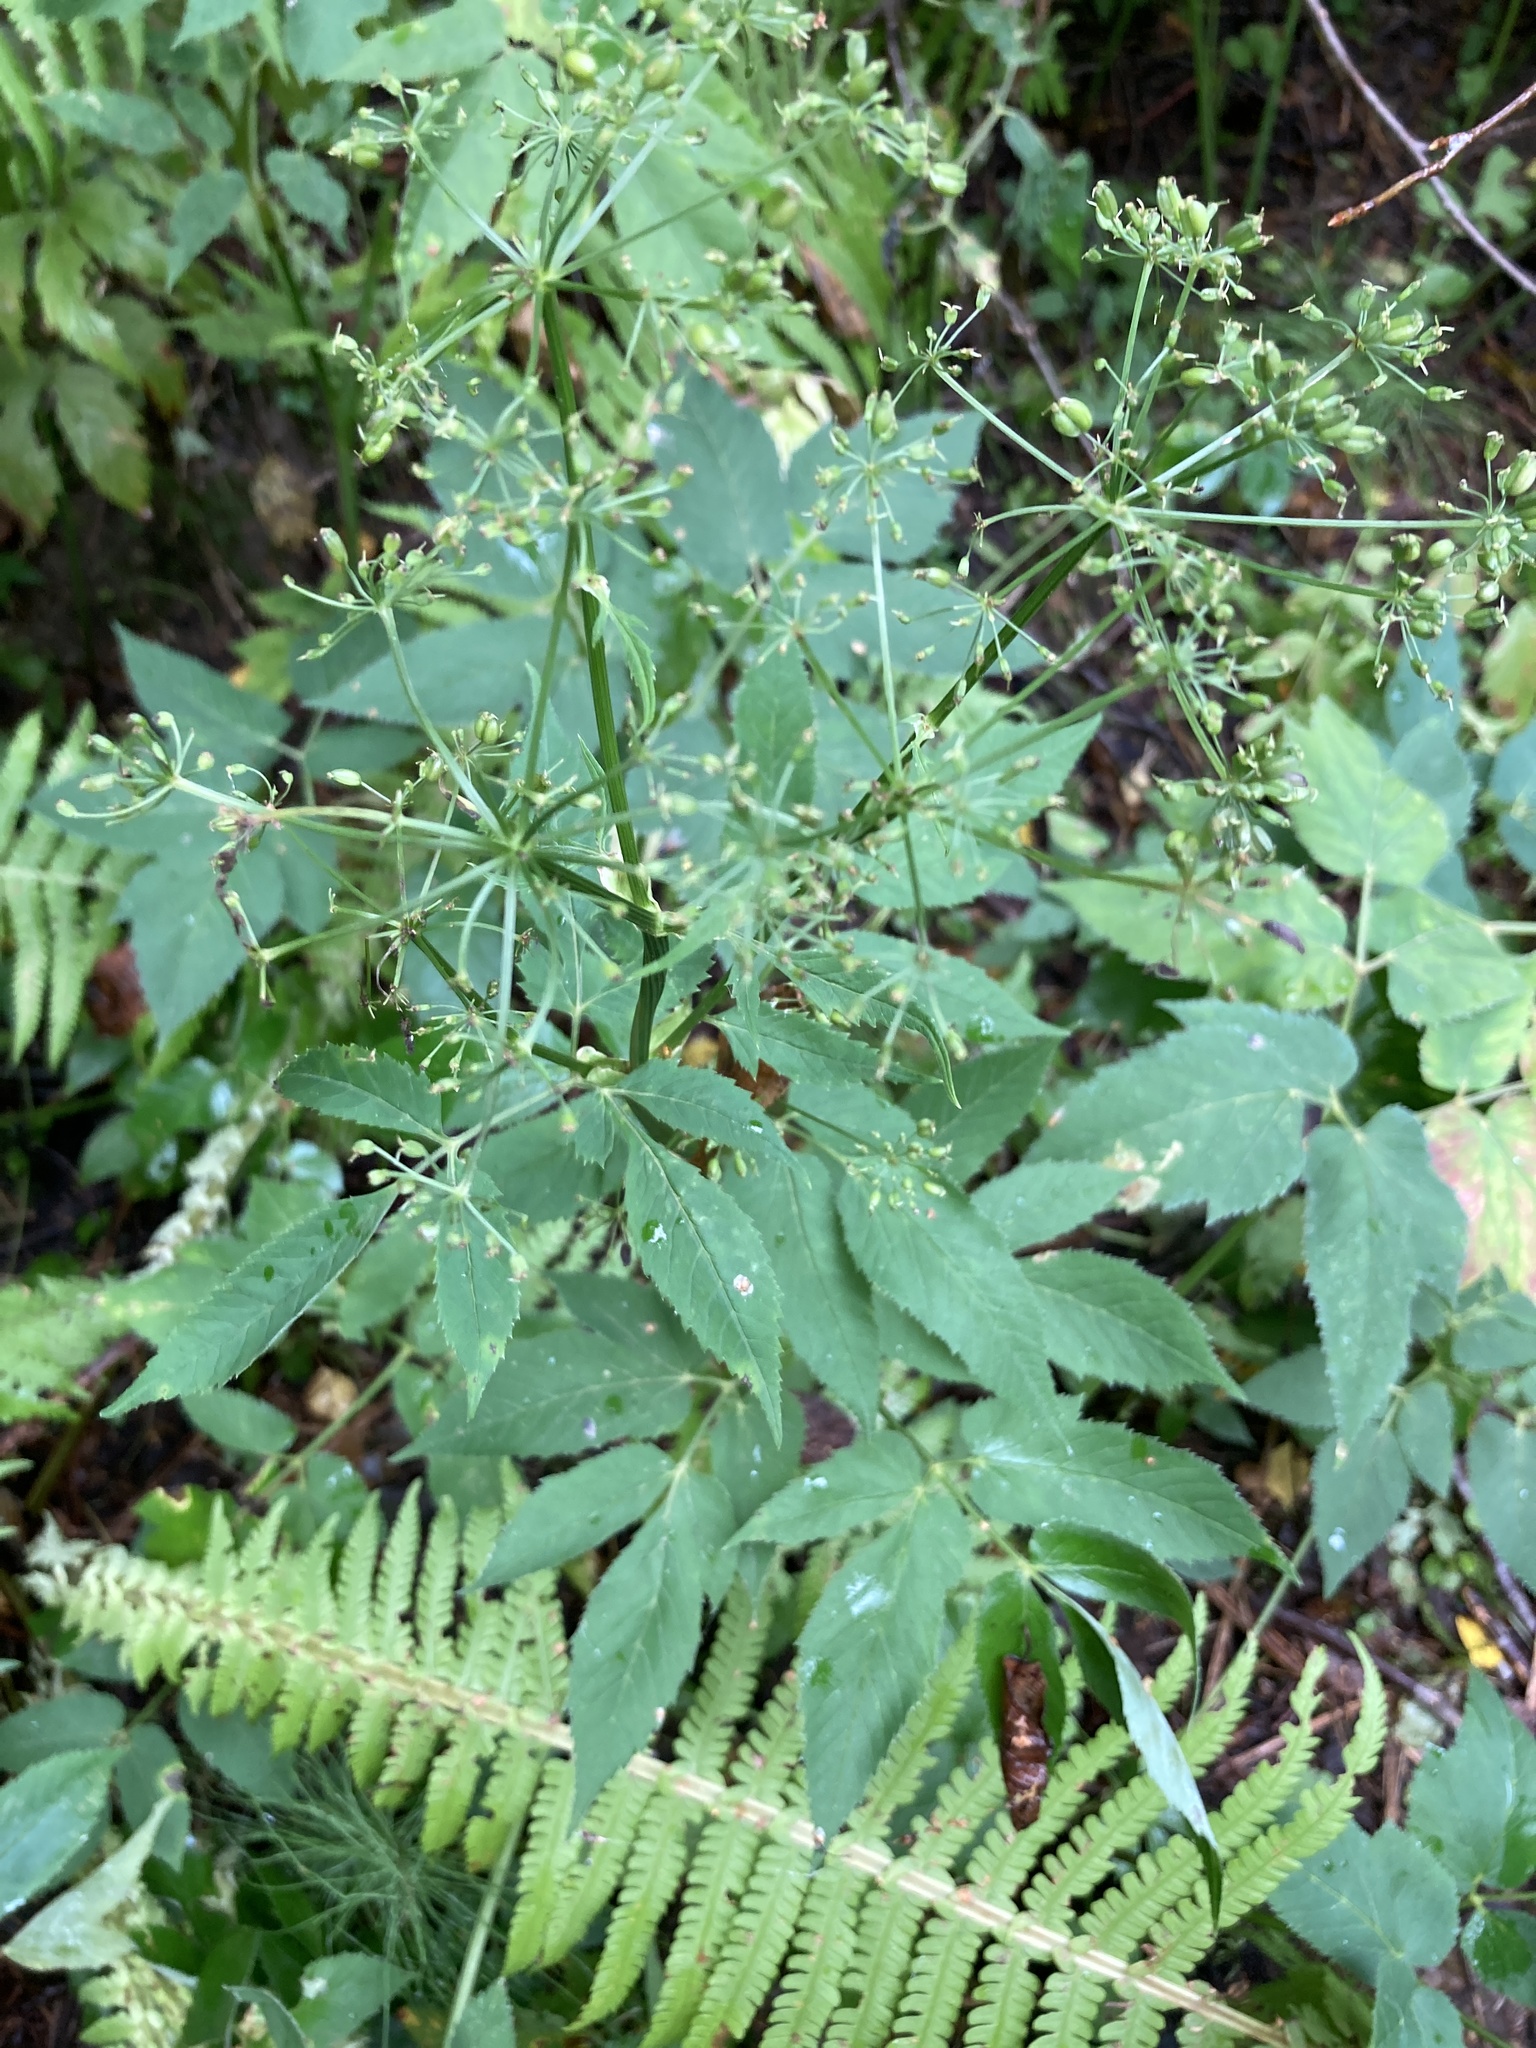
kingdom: Plantae
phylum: Tracheophyta
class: Magnoliopsida
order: Apiales
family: Apiaceae
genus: Aegopodium
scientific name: Aegopodium podagraria
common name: Ground-elder
